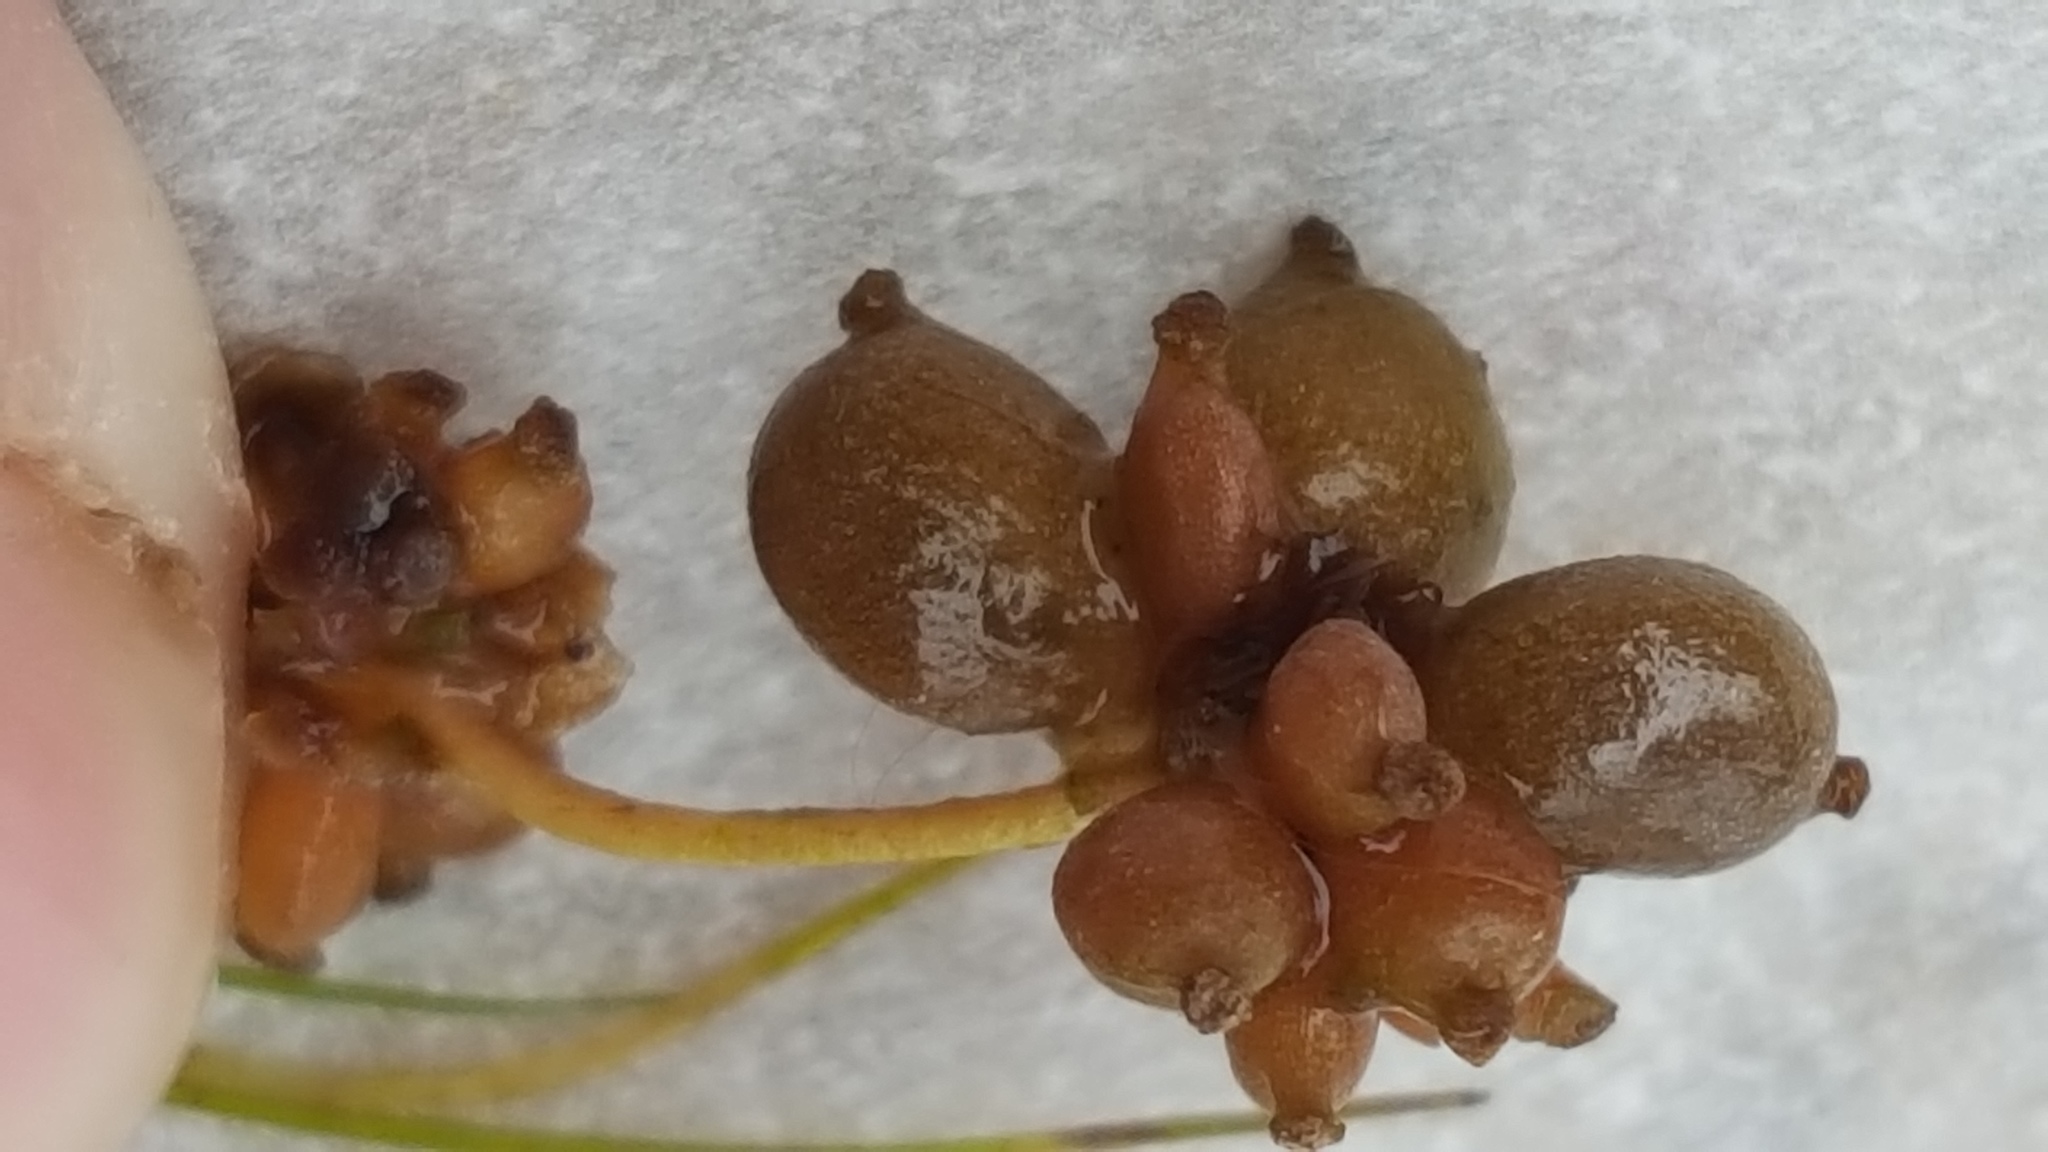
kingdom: Plantae
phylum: Tracheophyta
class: Liliopsida
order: Alismatales
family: Potamogetonaceae
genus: Stuckenia
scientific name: Stuckenia pectinata
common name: Sago pondweed
